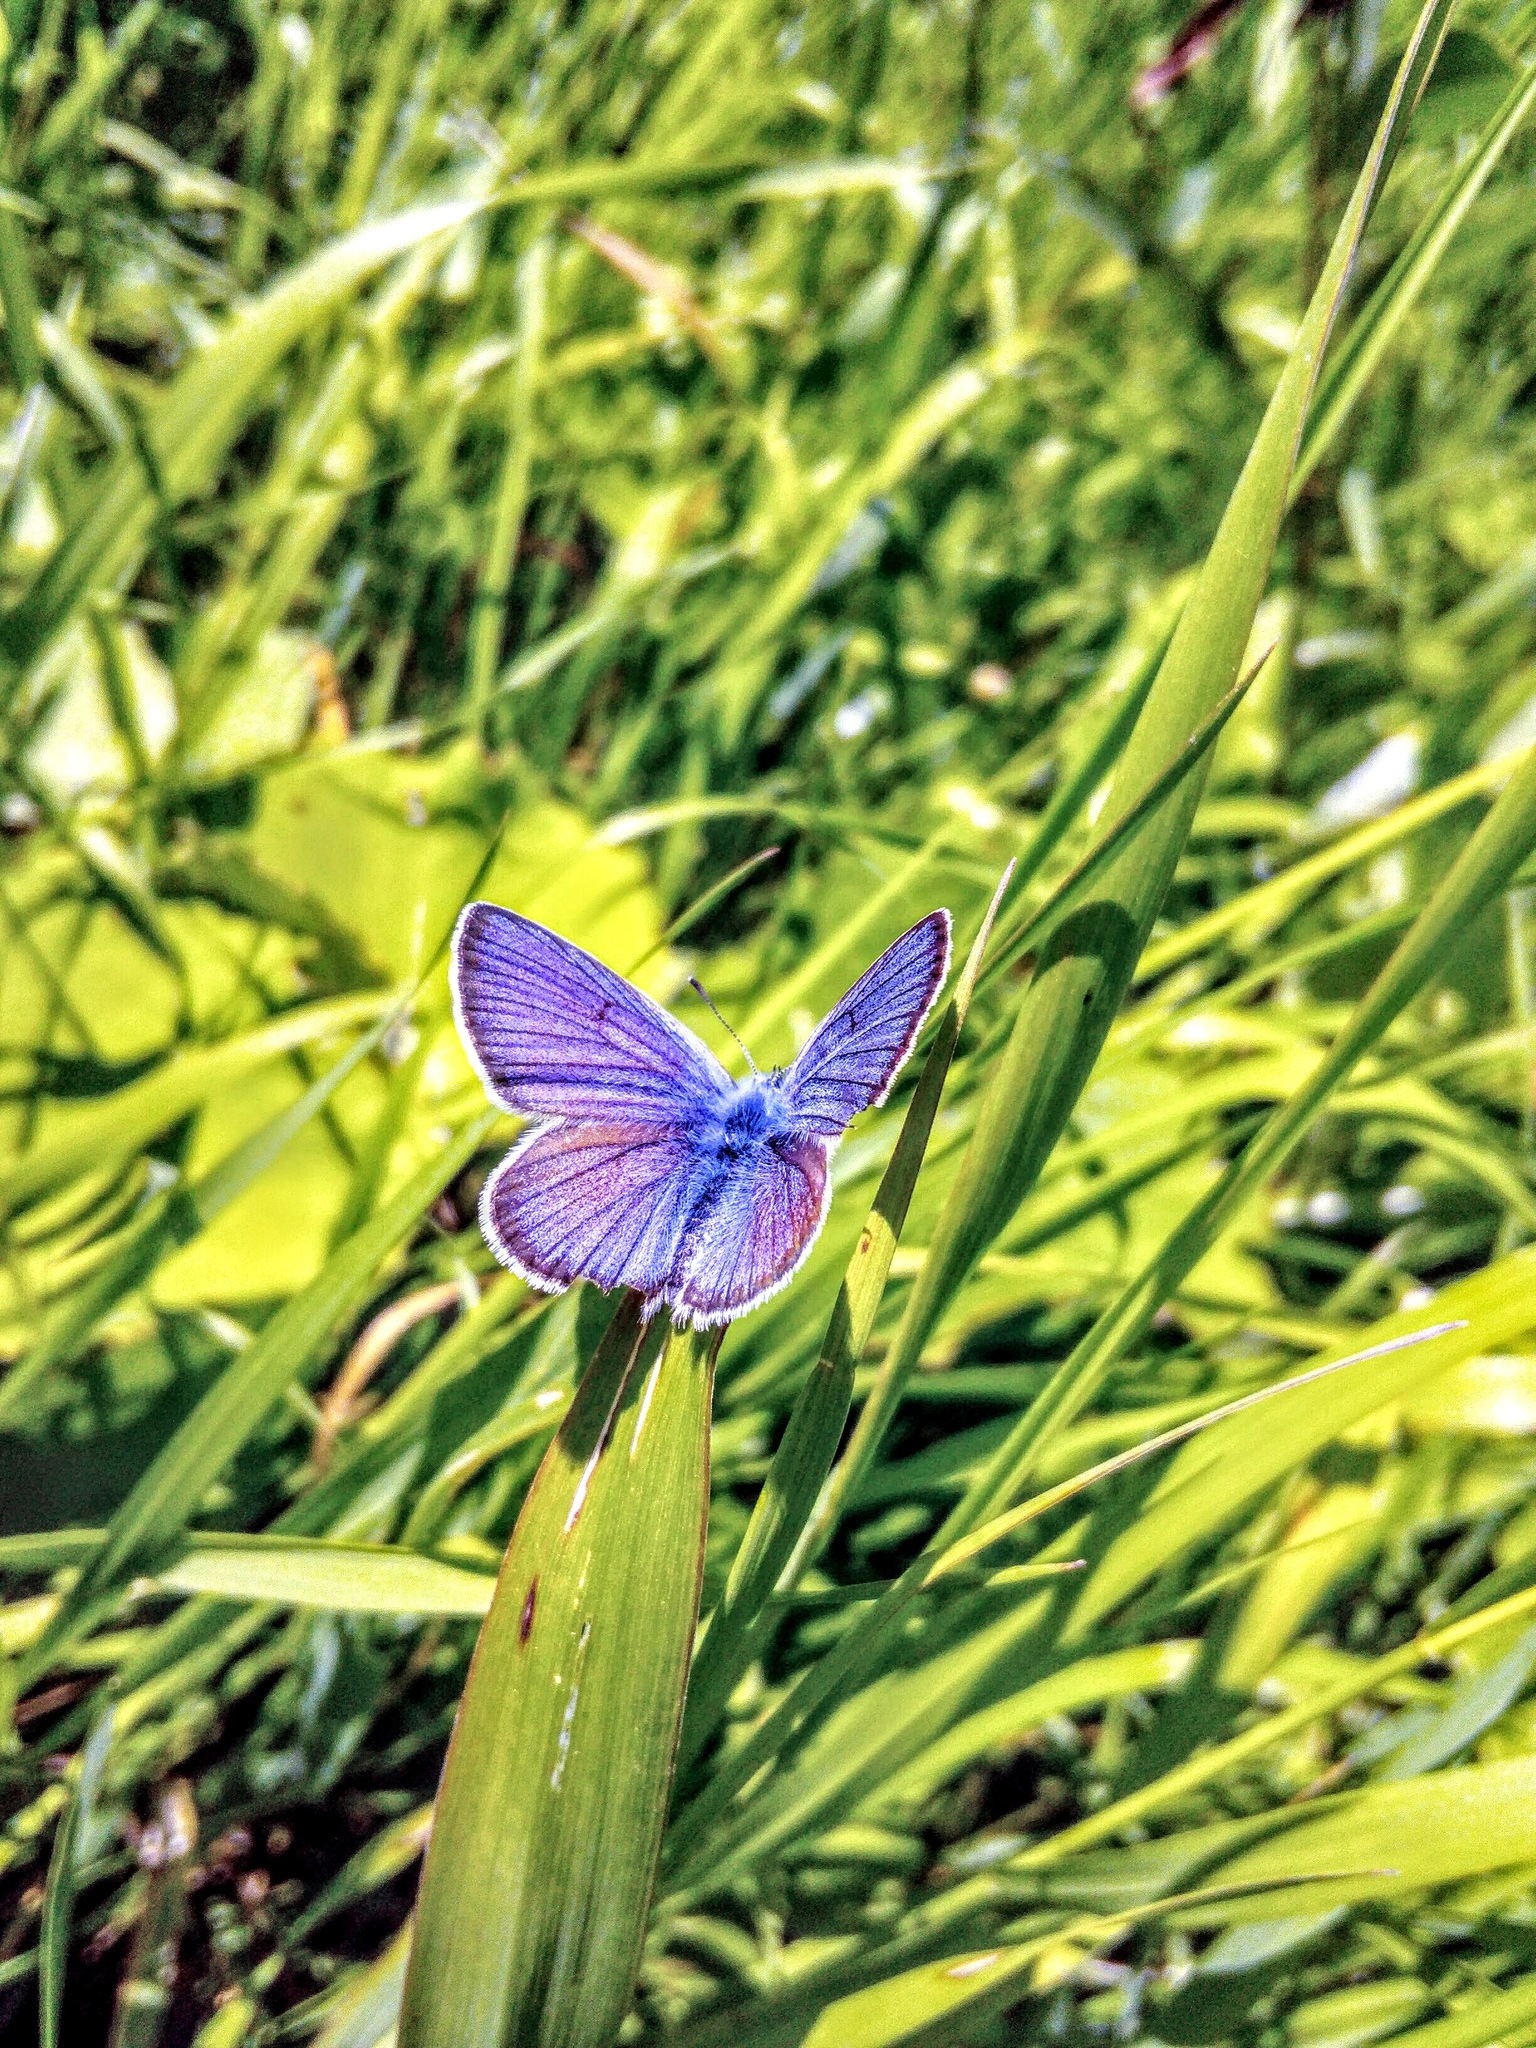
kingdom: Animalia
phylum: Arthropoda
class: Insecta
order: Lepidoptera
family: Lycaenidae
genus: Cyaniris
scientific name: Cyaniris semiargus
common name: Mazarine blue
